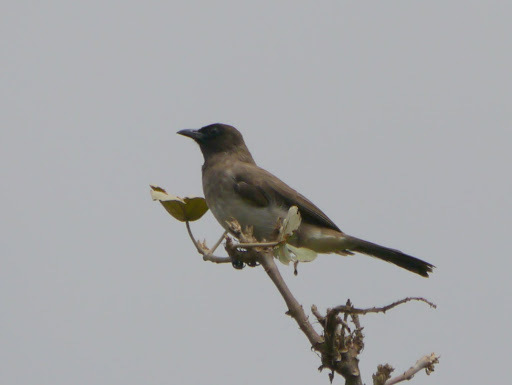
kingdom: Animalia
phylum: Chordata
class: Aves
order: Passeriformes
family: Pycnonotidae
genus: Pycnonotus
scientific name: Pycnonotus barbatus
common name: Common bulbul
